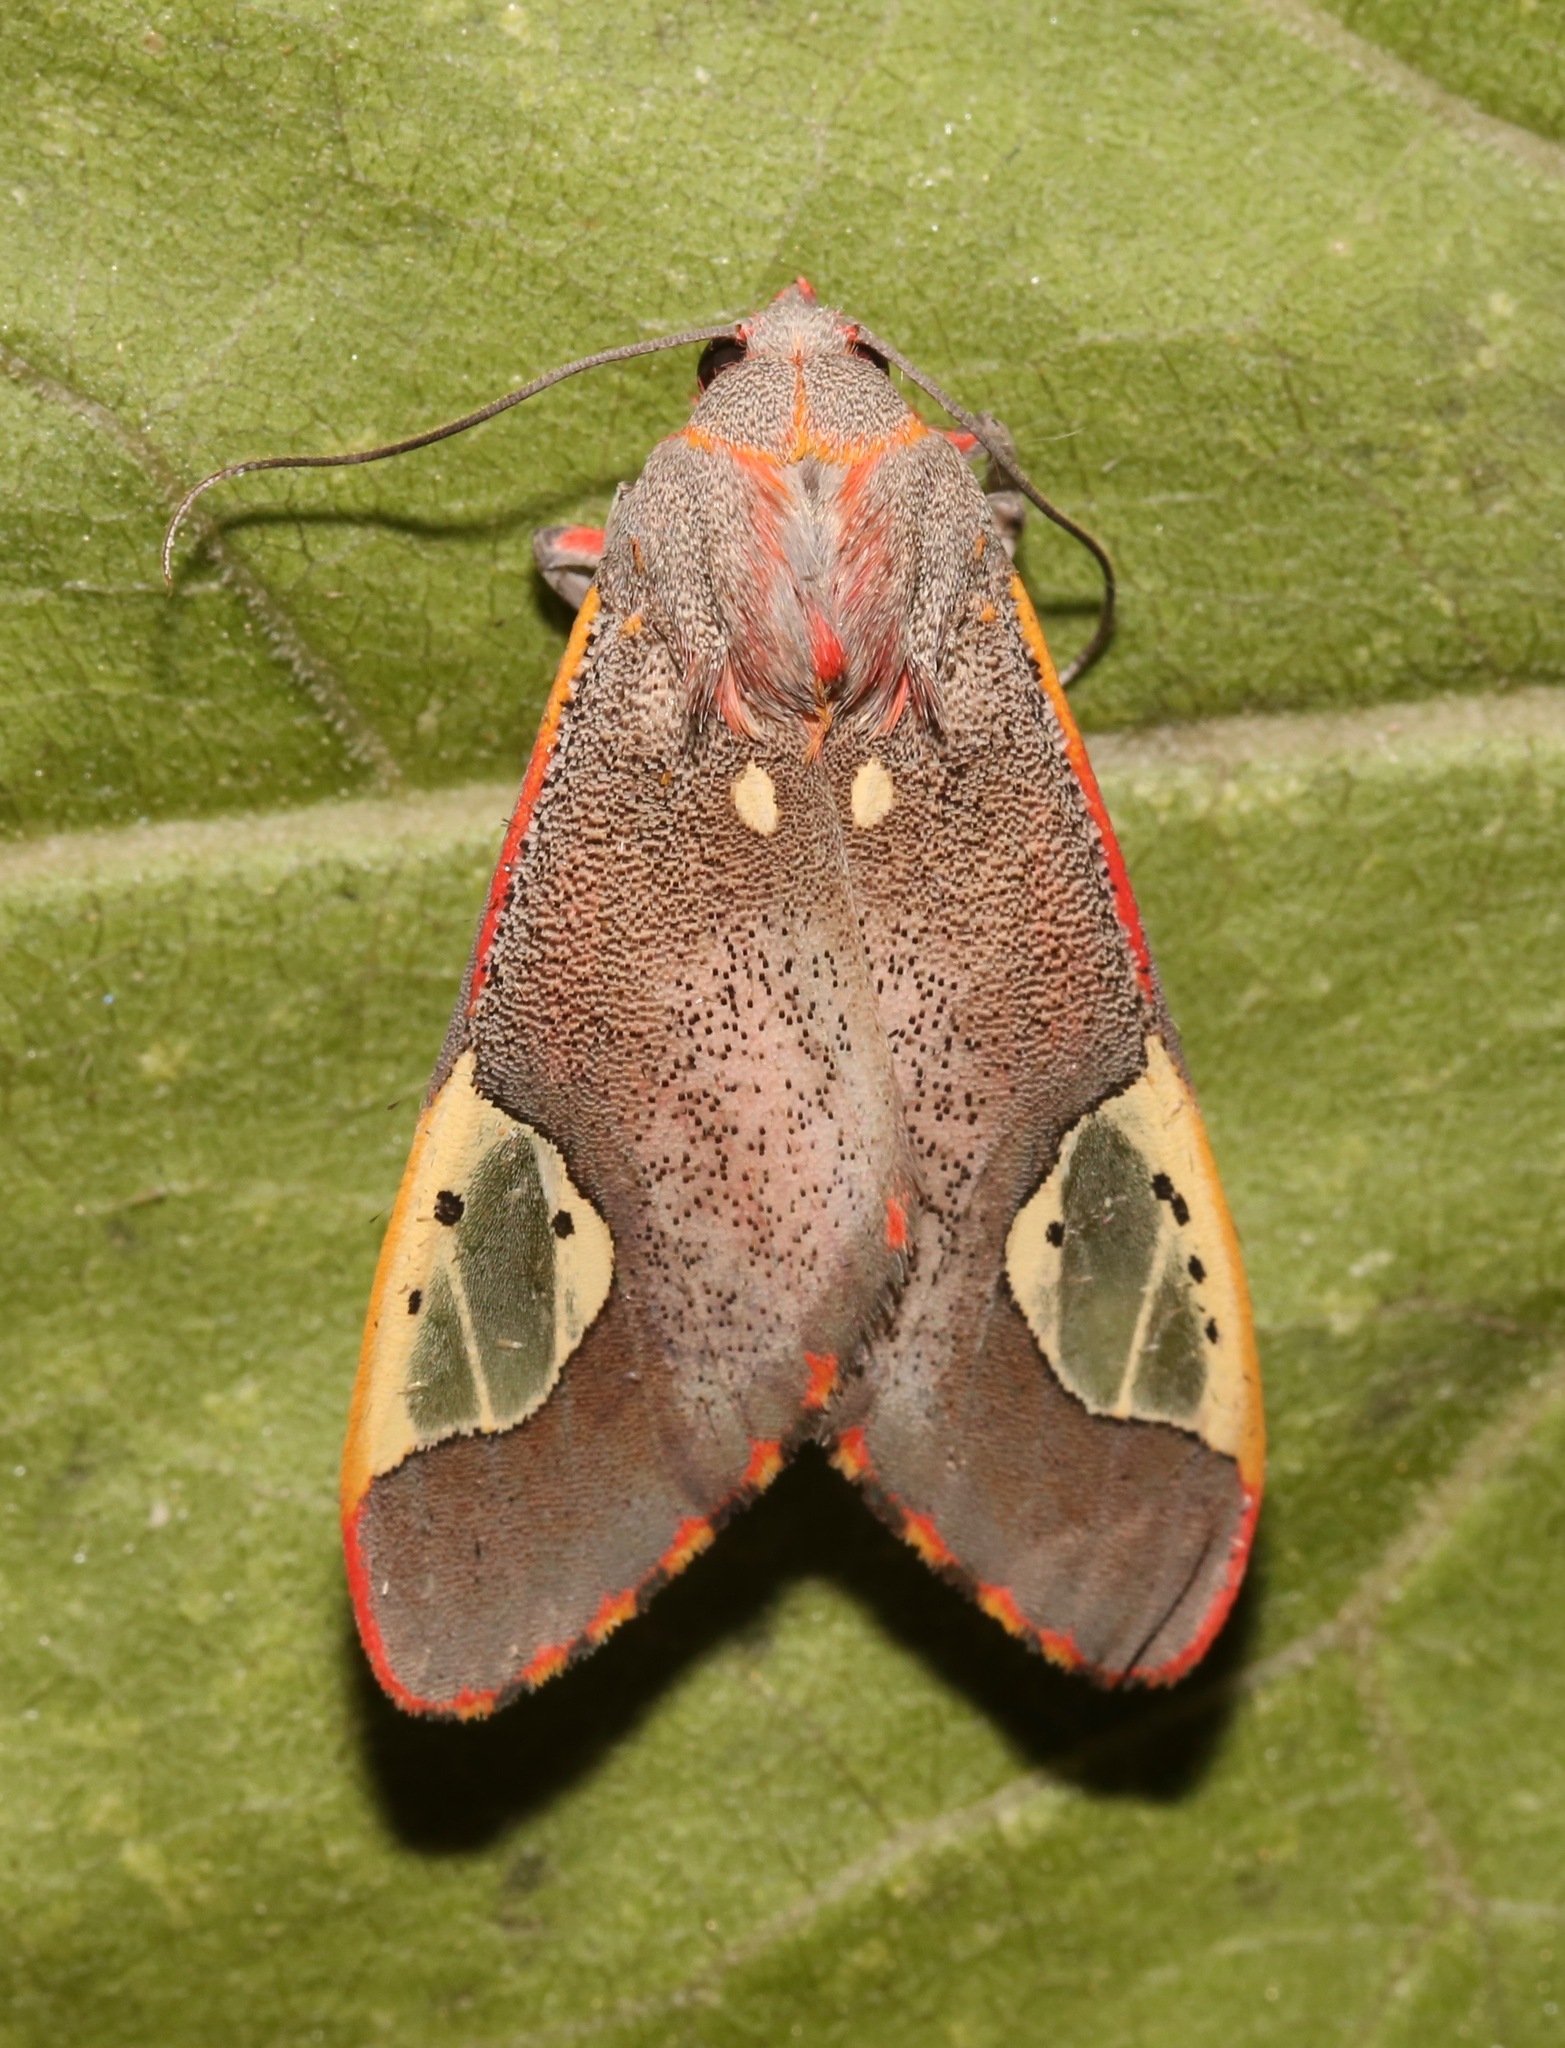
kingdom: Animalia
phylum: Arthropoda
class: Insecta
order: Lepidoptera
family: Erebidae
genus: Bertholdia
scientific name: Bertholdia trigona
